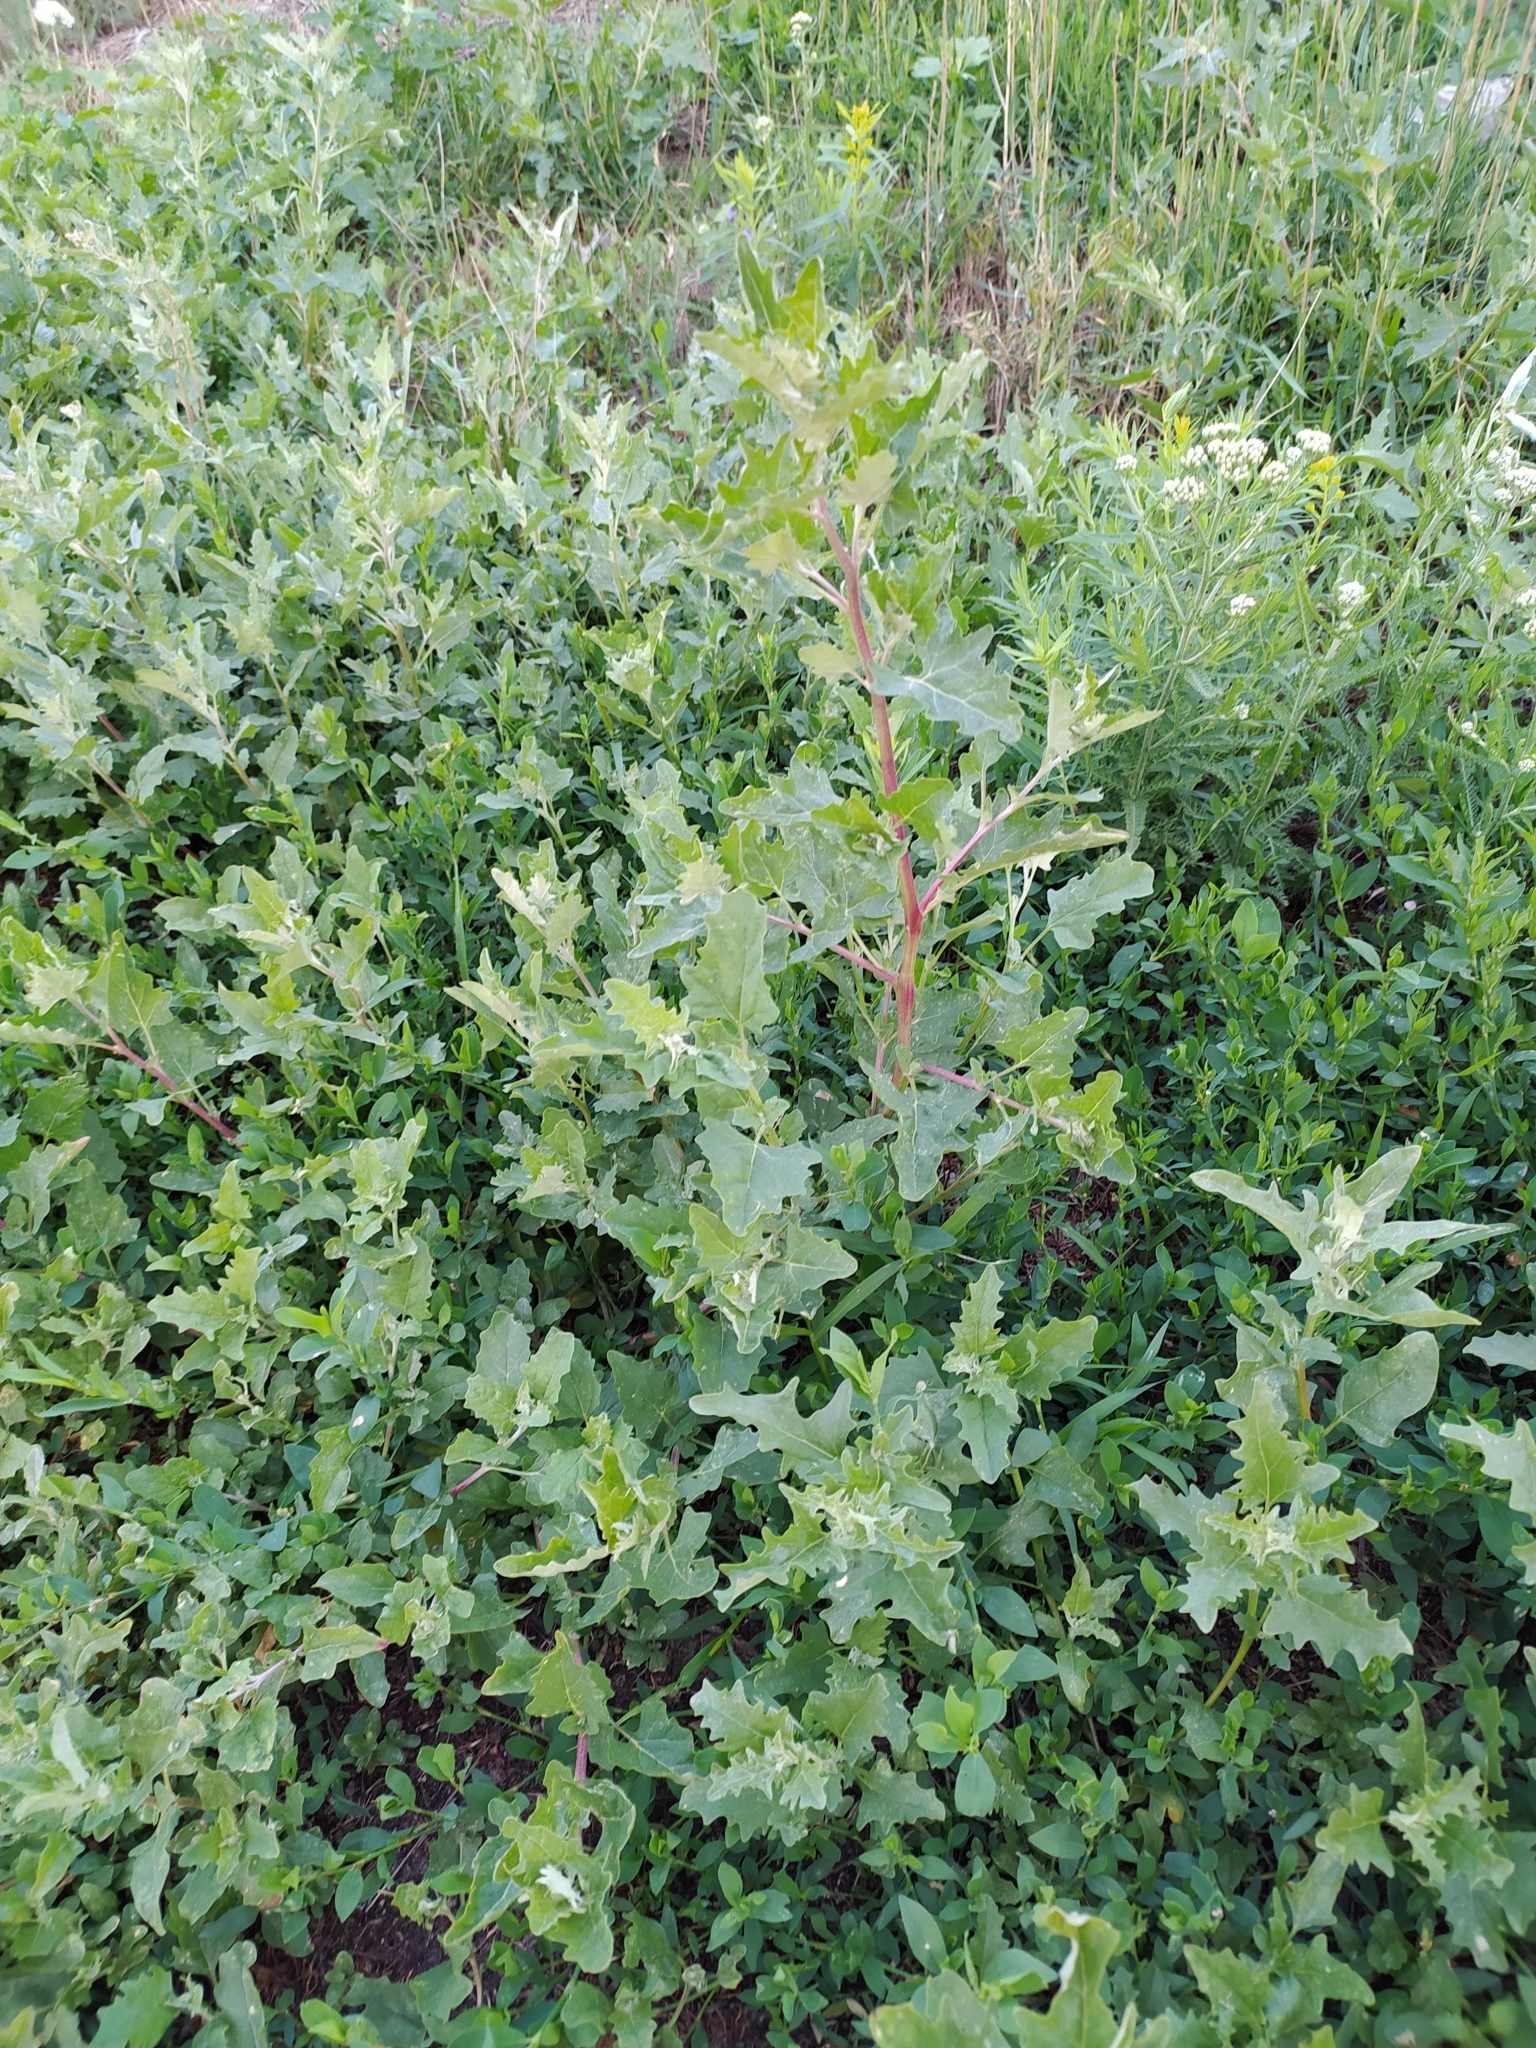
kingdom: Plantae
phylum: Tracheophyta
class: Magnoliopsida
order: Caryophyllales
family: Amaranthaceae
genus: Atriplex
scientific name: Atriplex tatarica
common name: Tatarian orache
